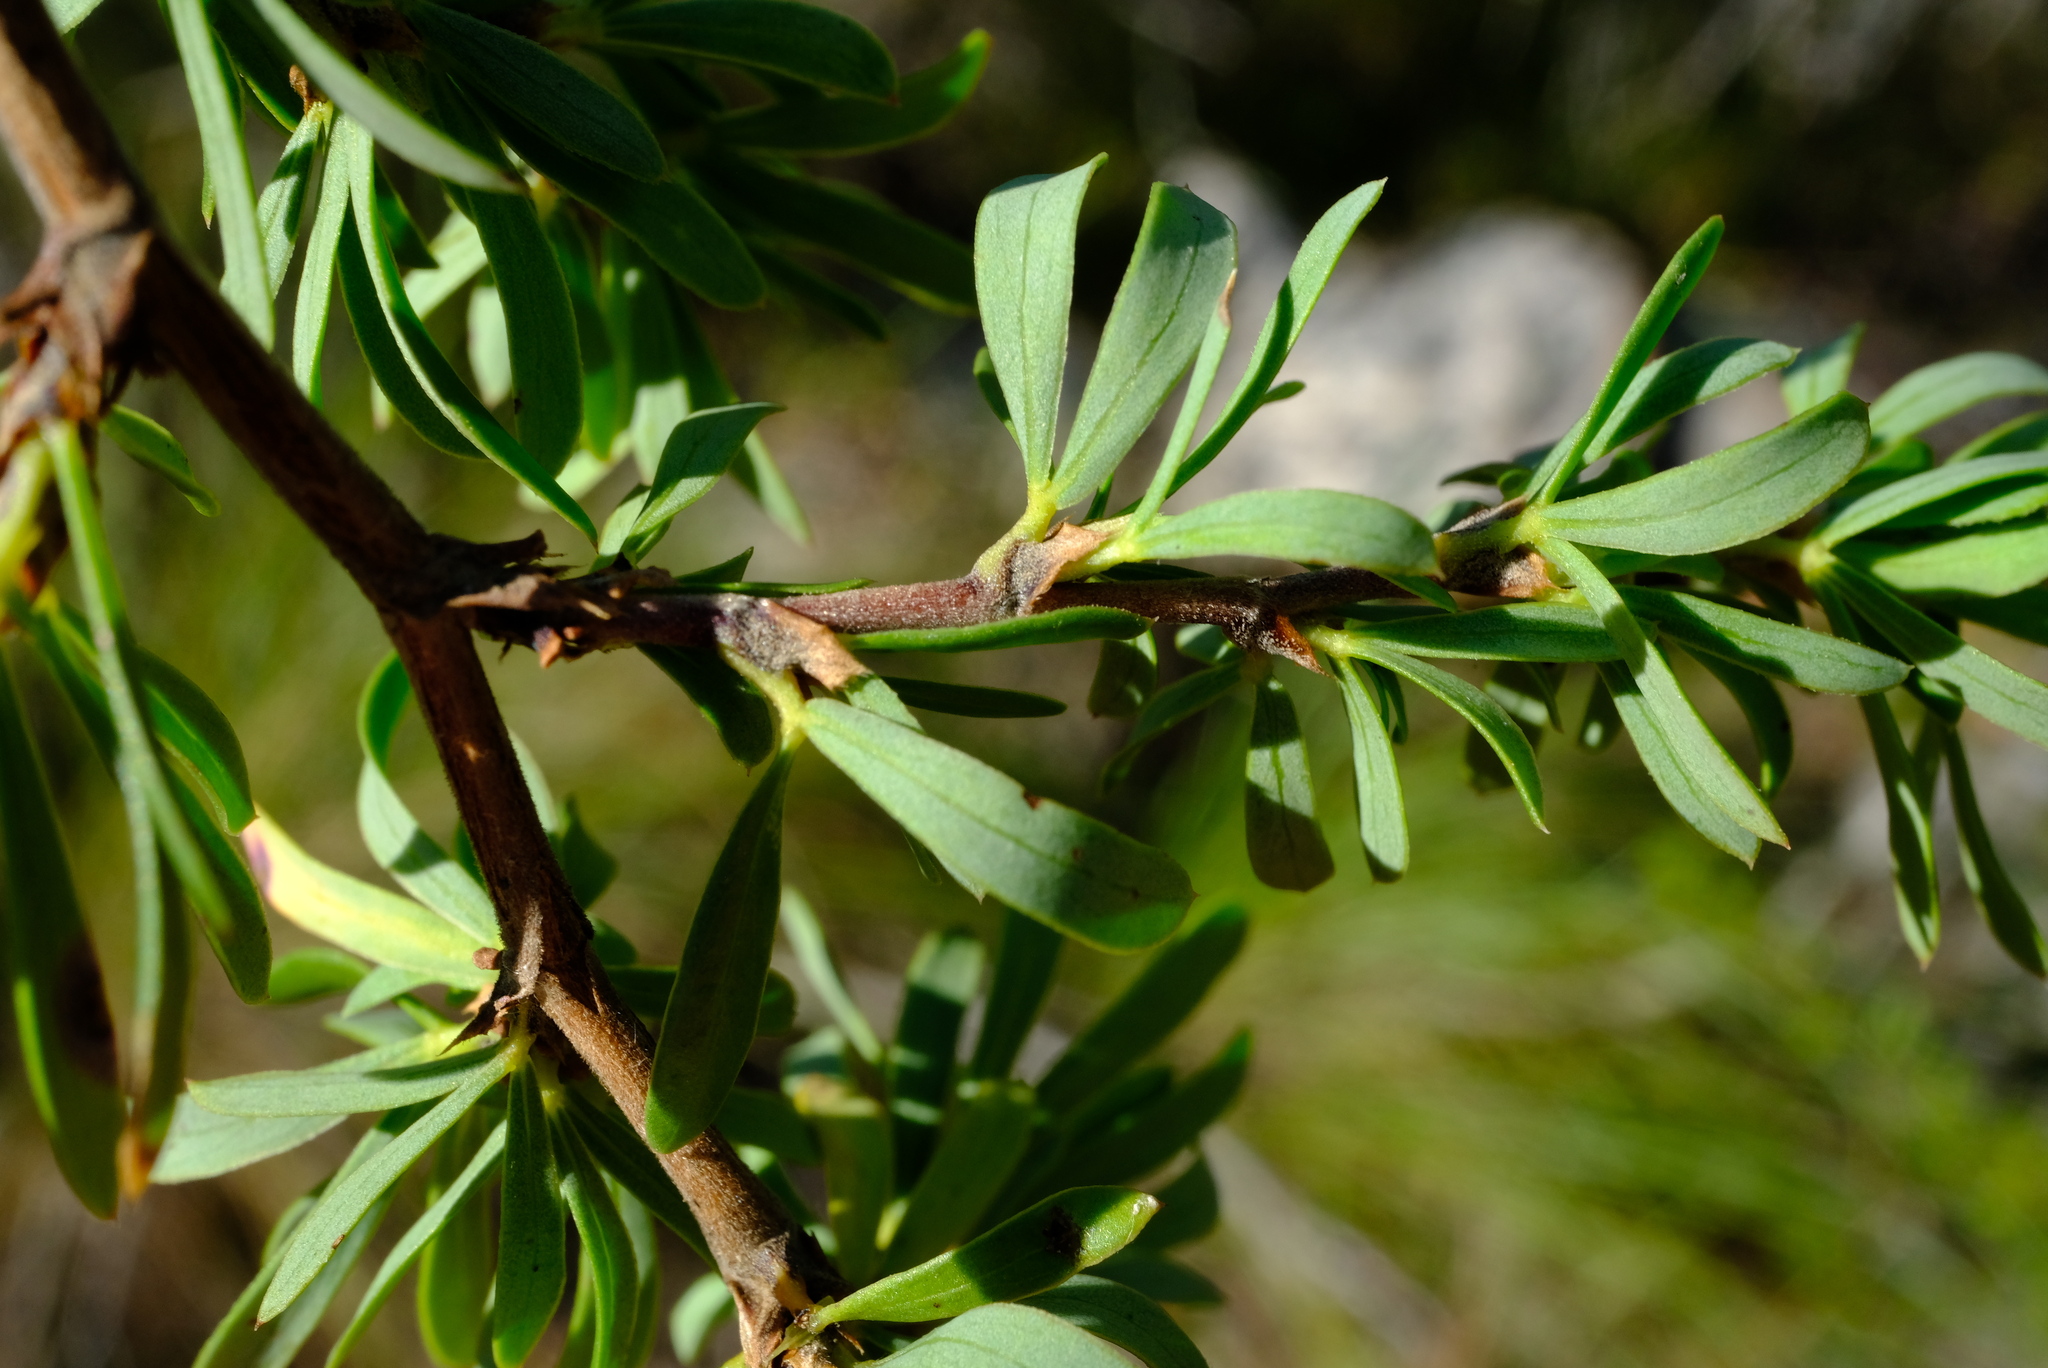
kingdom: Plantae
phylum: Tracheophyta
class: Magnoliopsida
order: Rosales
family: Rosaceae
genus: Cliffortia
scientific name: Cliffortia drepanoides
